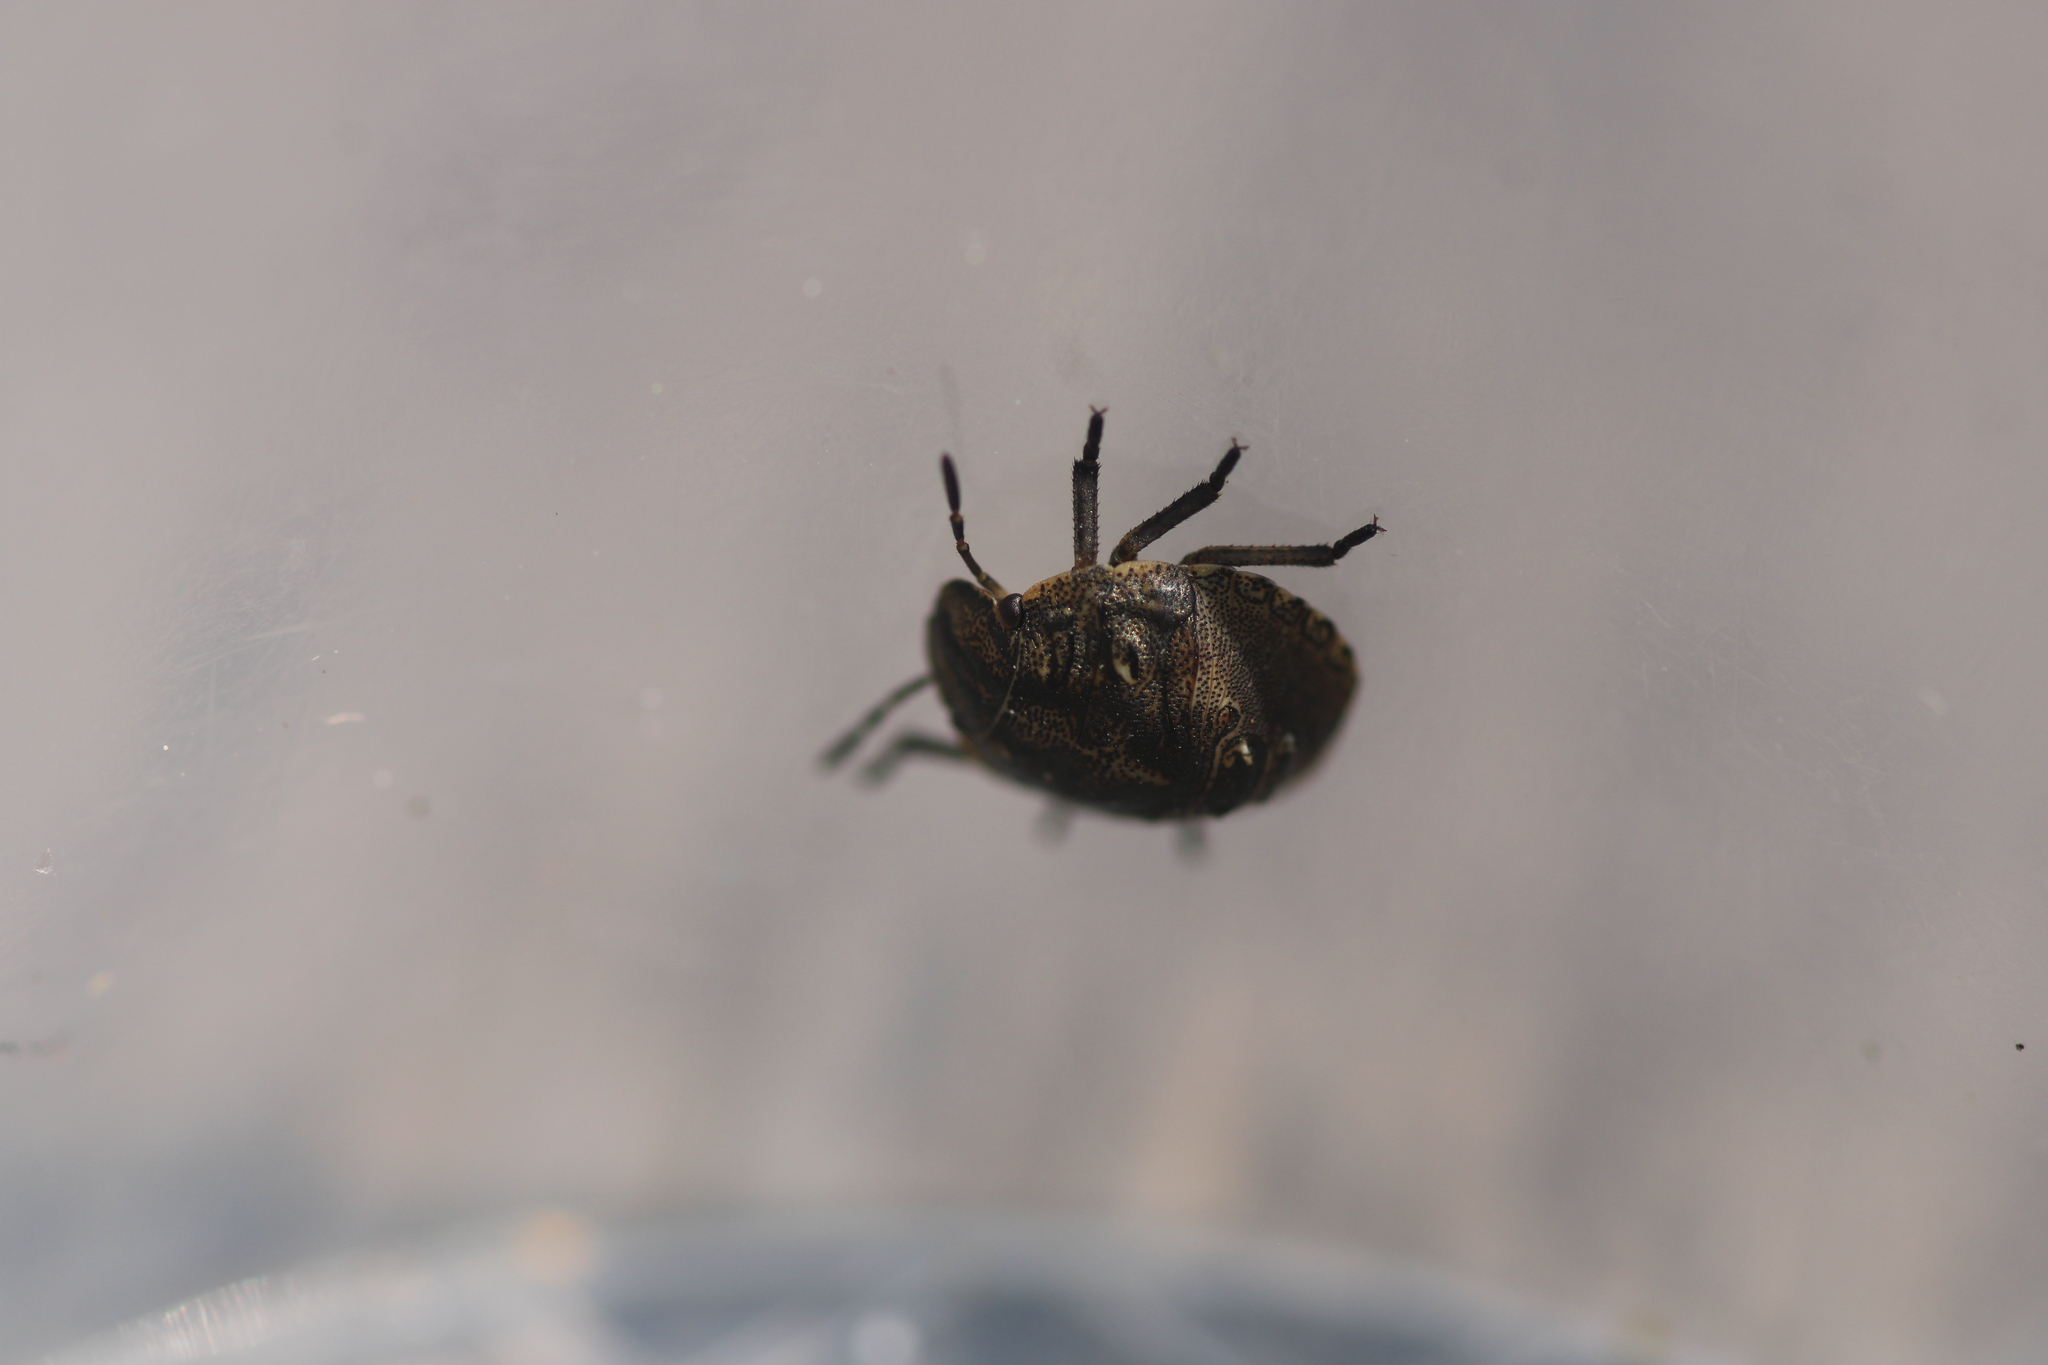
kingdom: Animalia
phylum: Arthropoda
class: Insecta
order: Hemiptera
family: Scutelleridae
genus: Eurygaster
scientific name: Eurygaster testudinaria
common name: Tortoise bug
